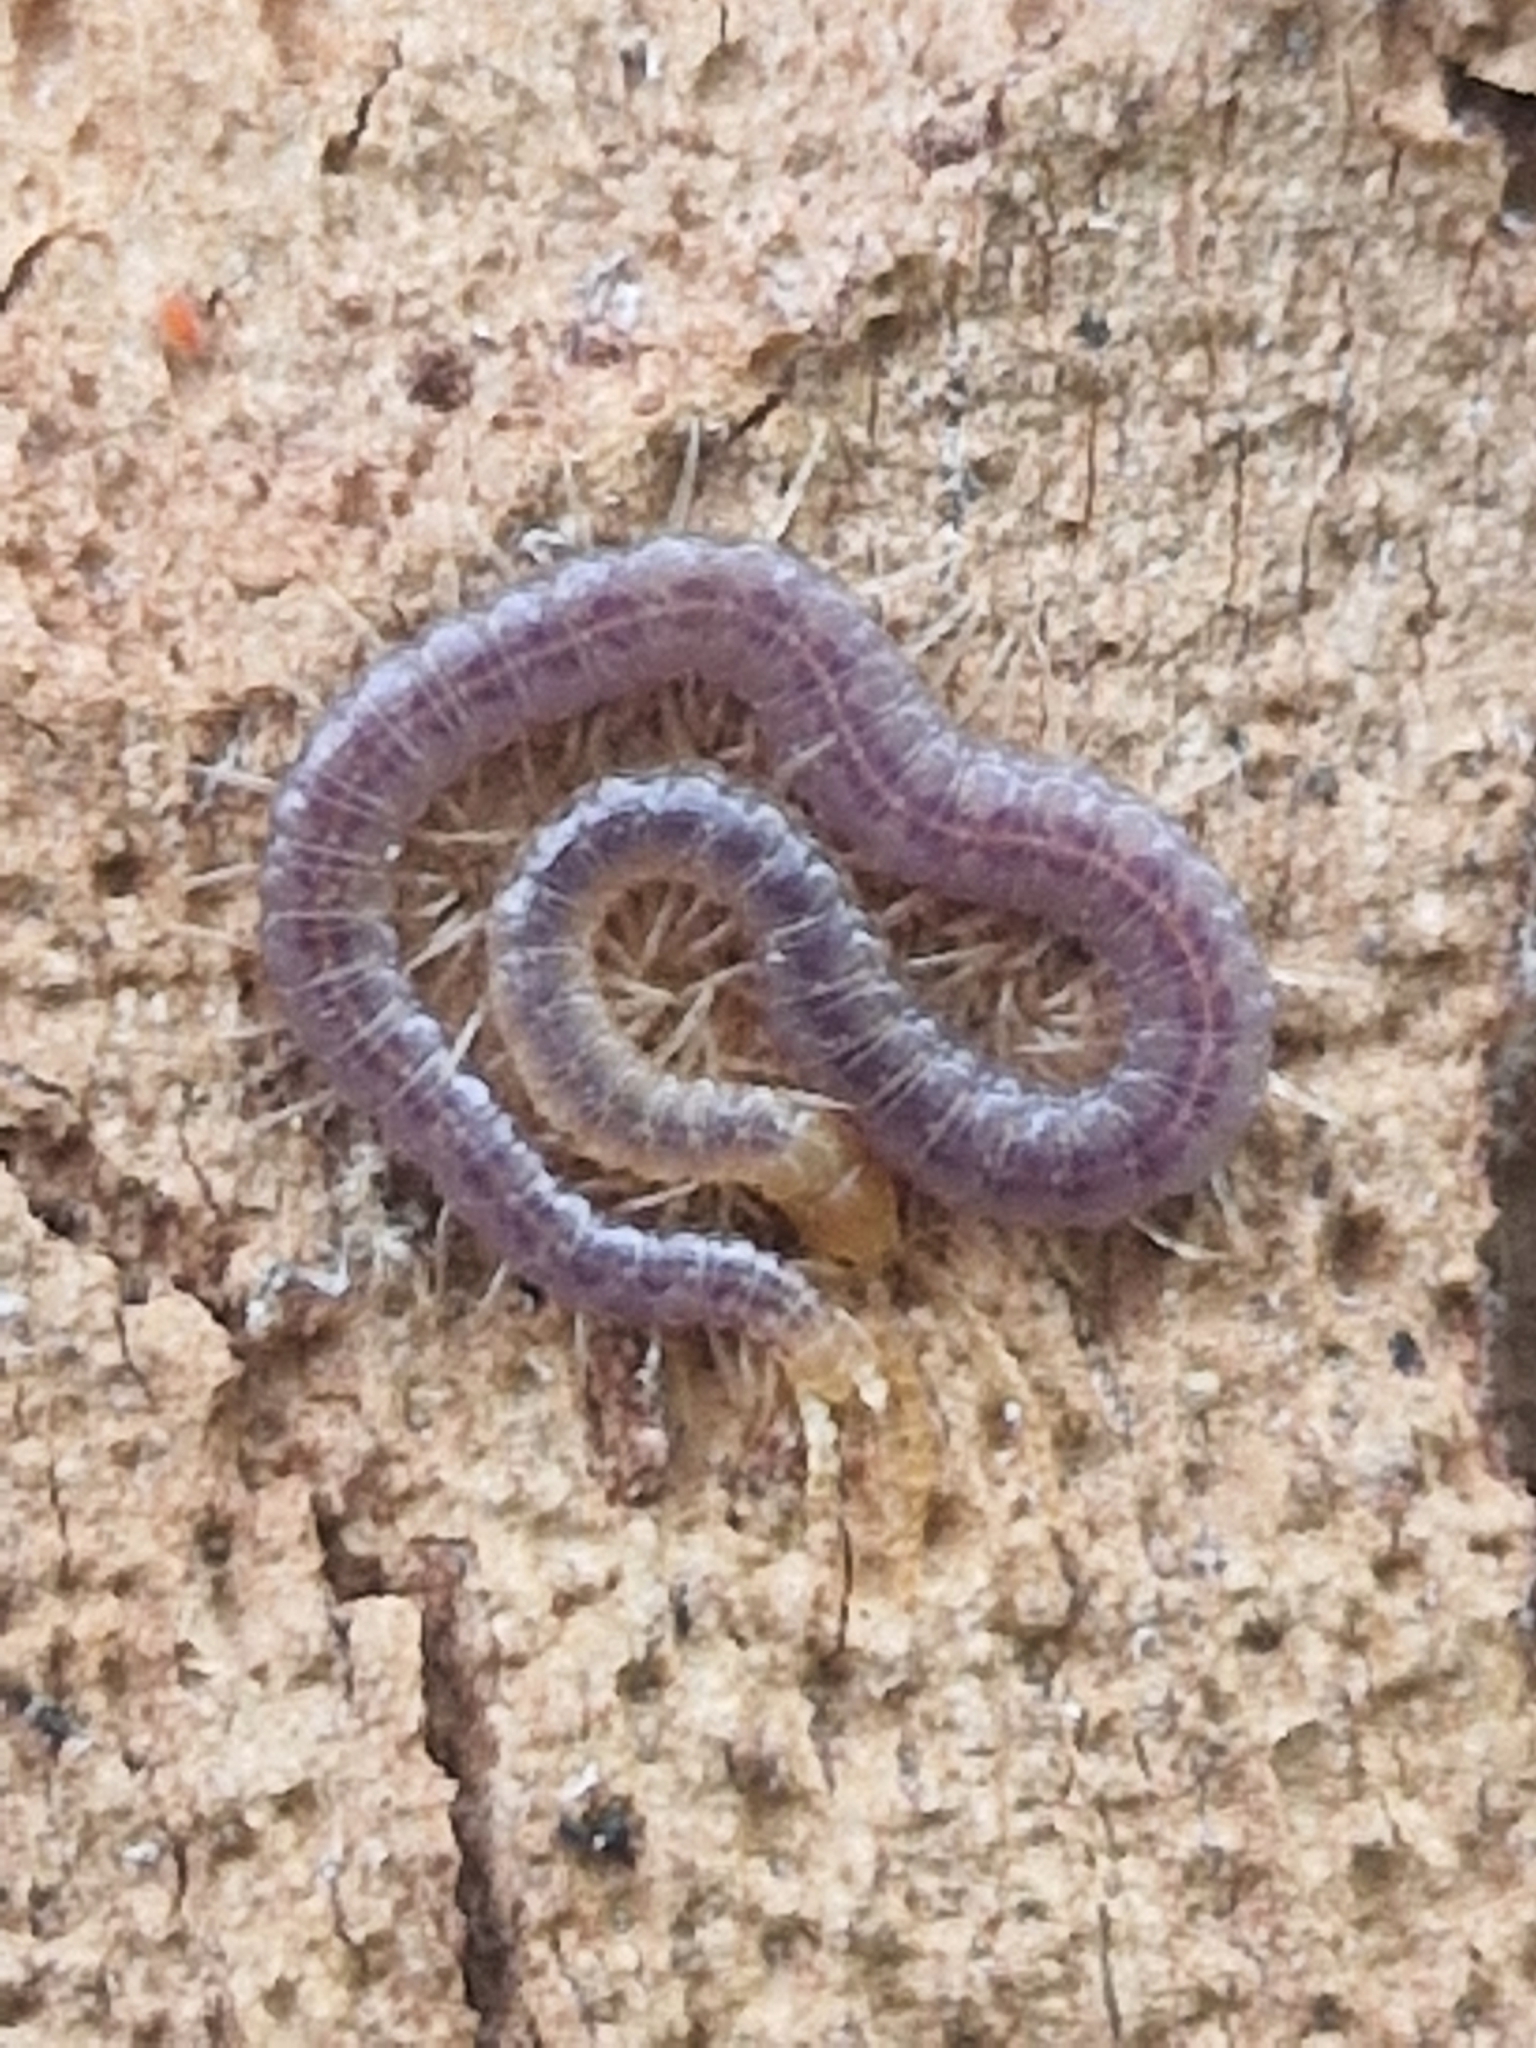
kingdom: Animalia
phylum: Arthropoda
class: Chilopoda
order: Geophilomorpha
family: Geophilidae
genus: Geophilus
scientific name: Geophilus carpophagus
